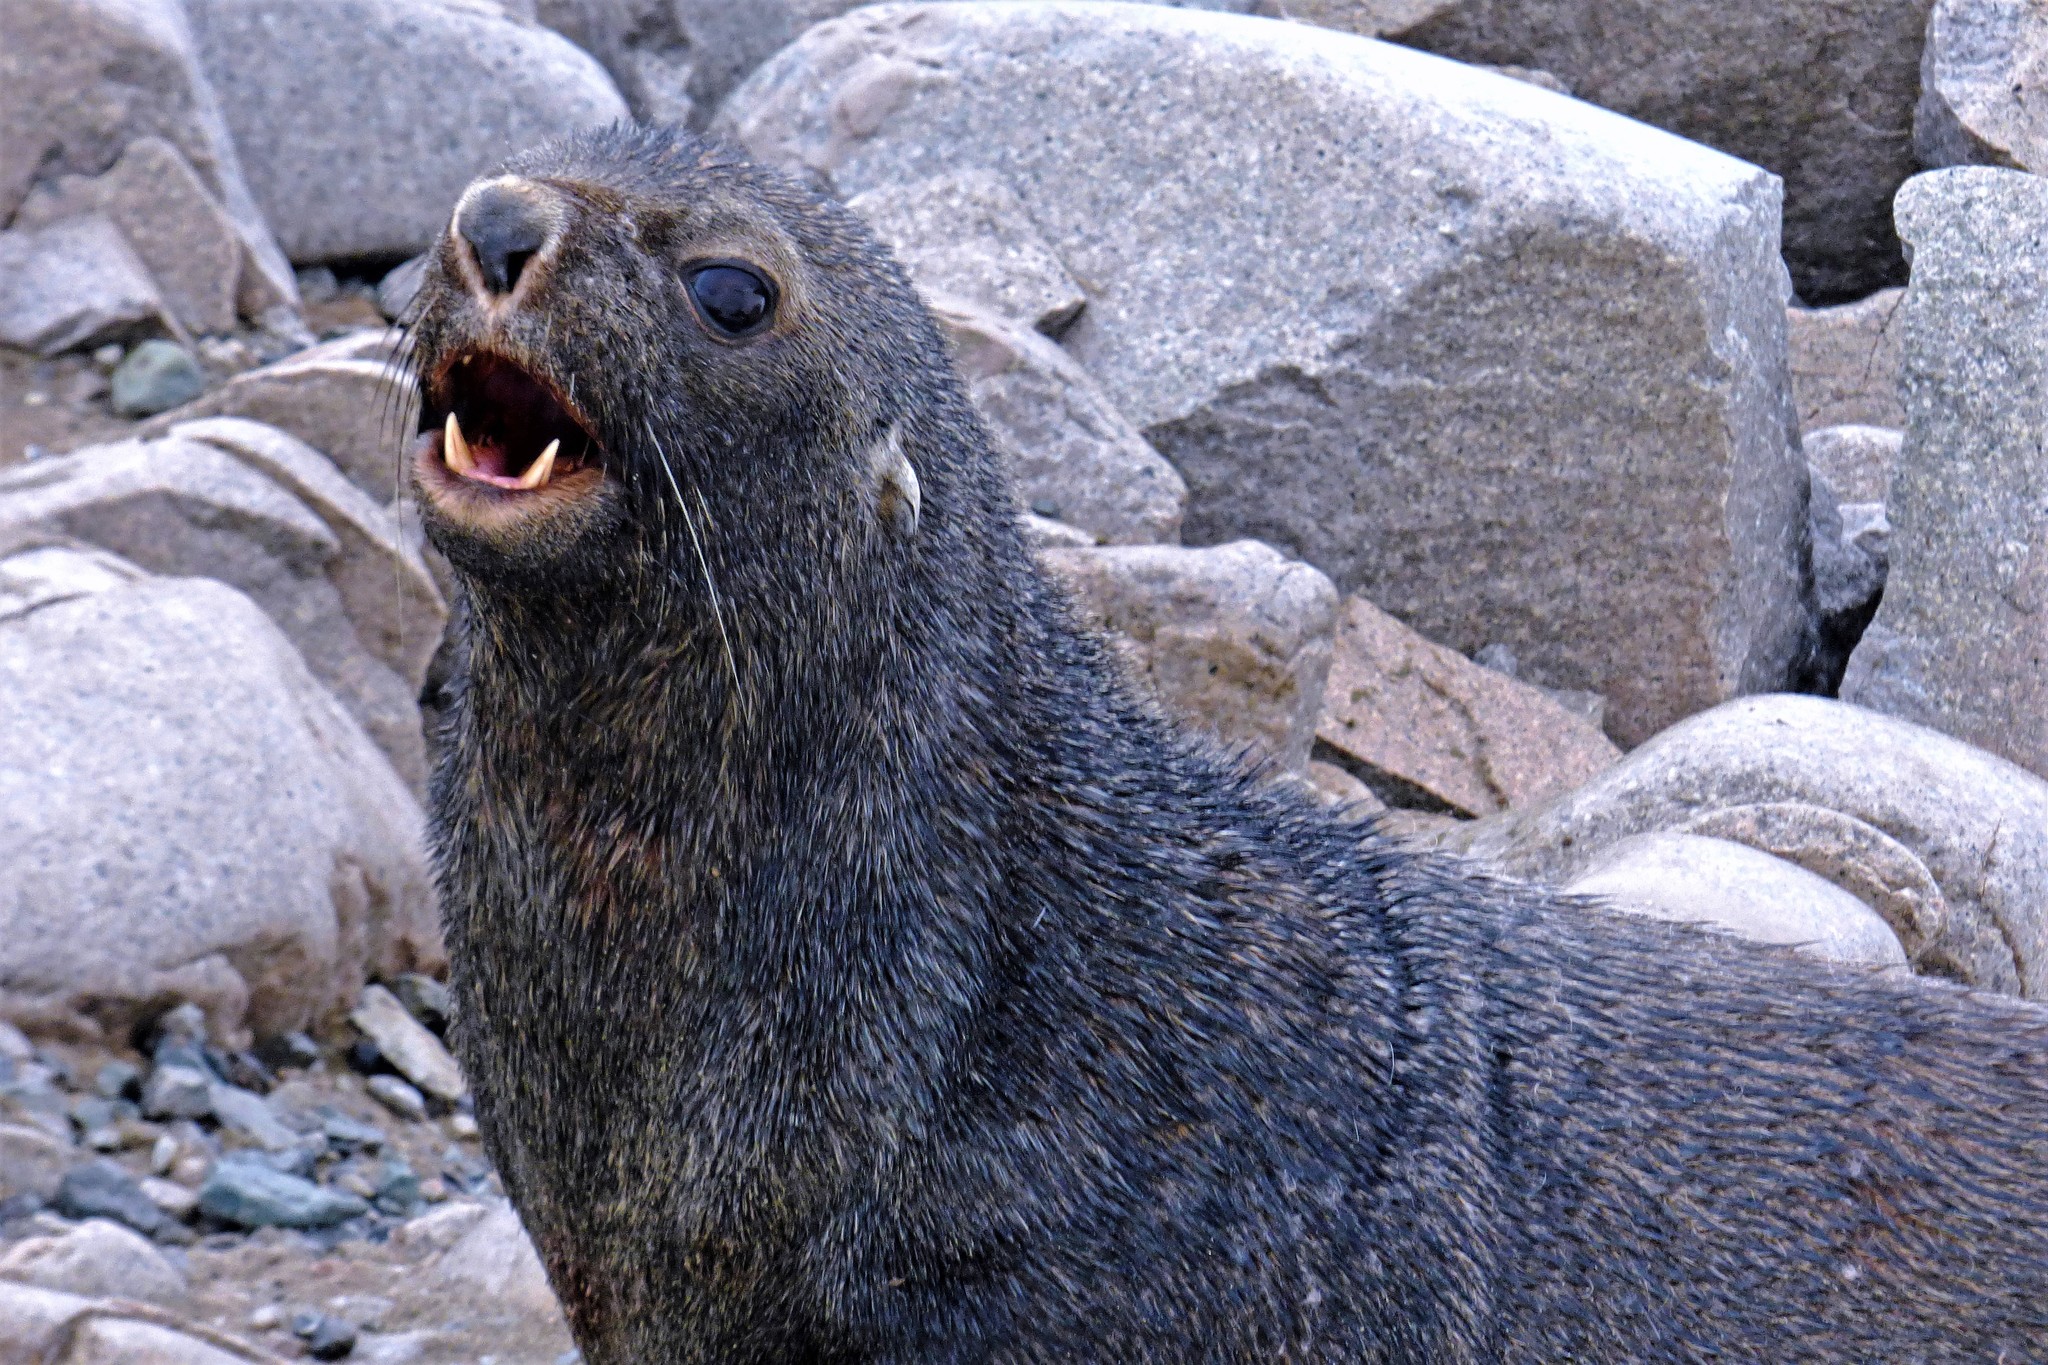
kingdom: Animalia
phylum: Chordata
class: Mammalia
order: Carnivora
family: Otariidae
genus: Arctocephalus
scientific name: Arctocephalus gazella
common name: Antarctic fur seal
